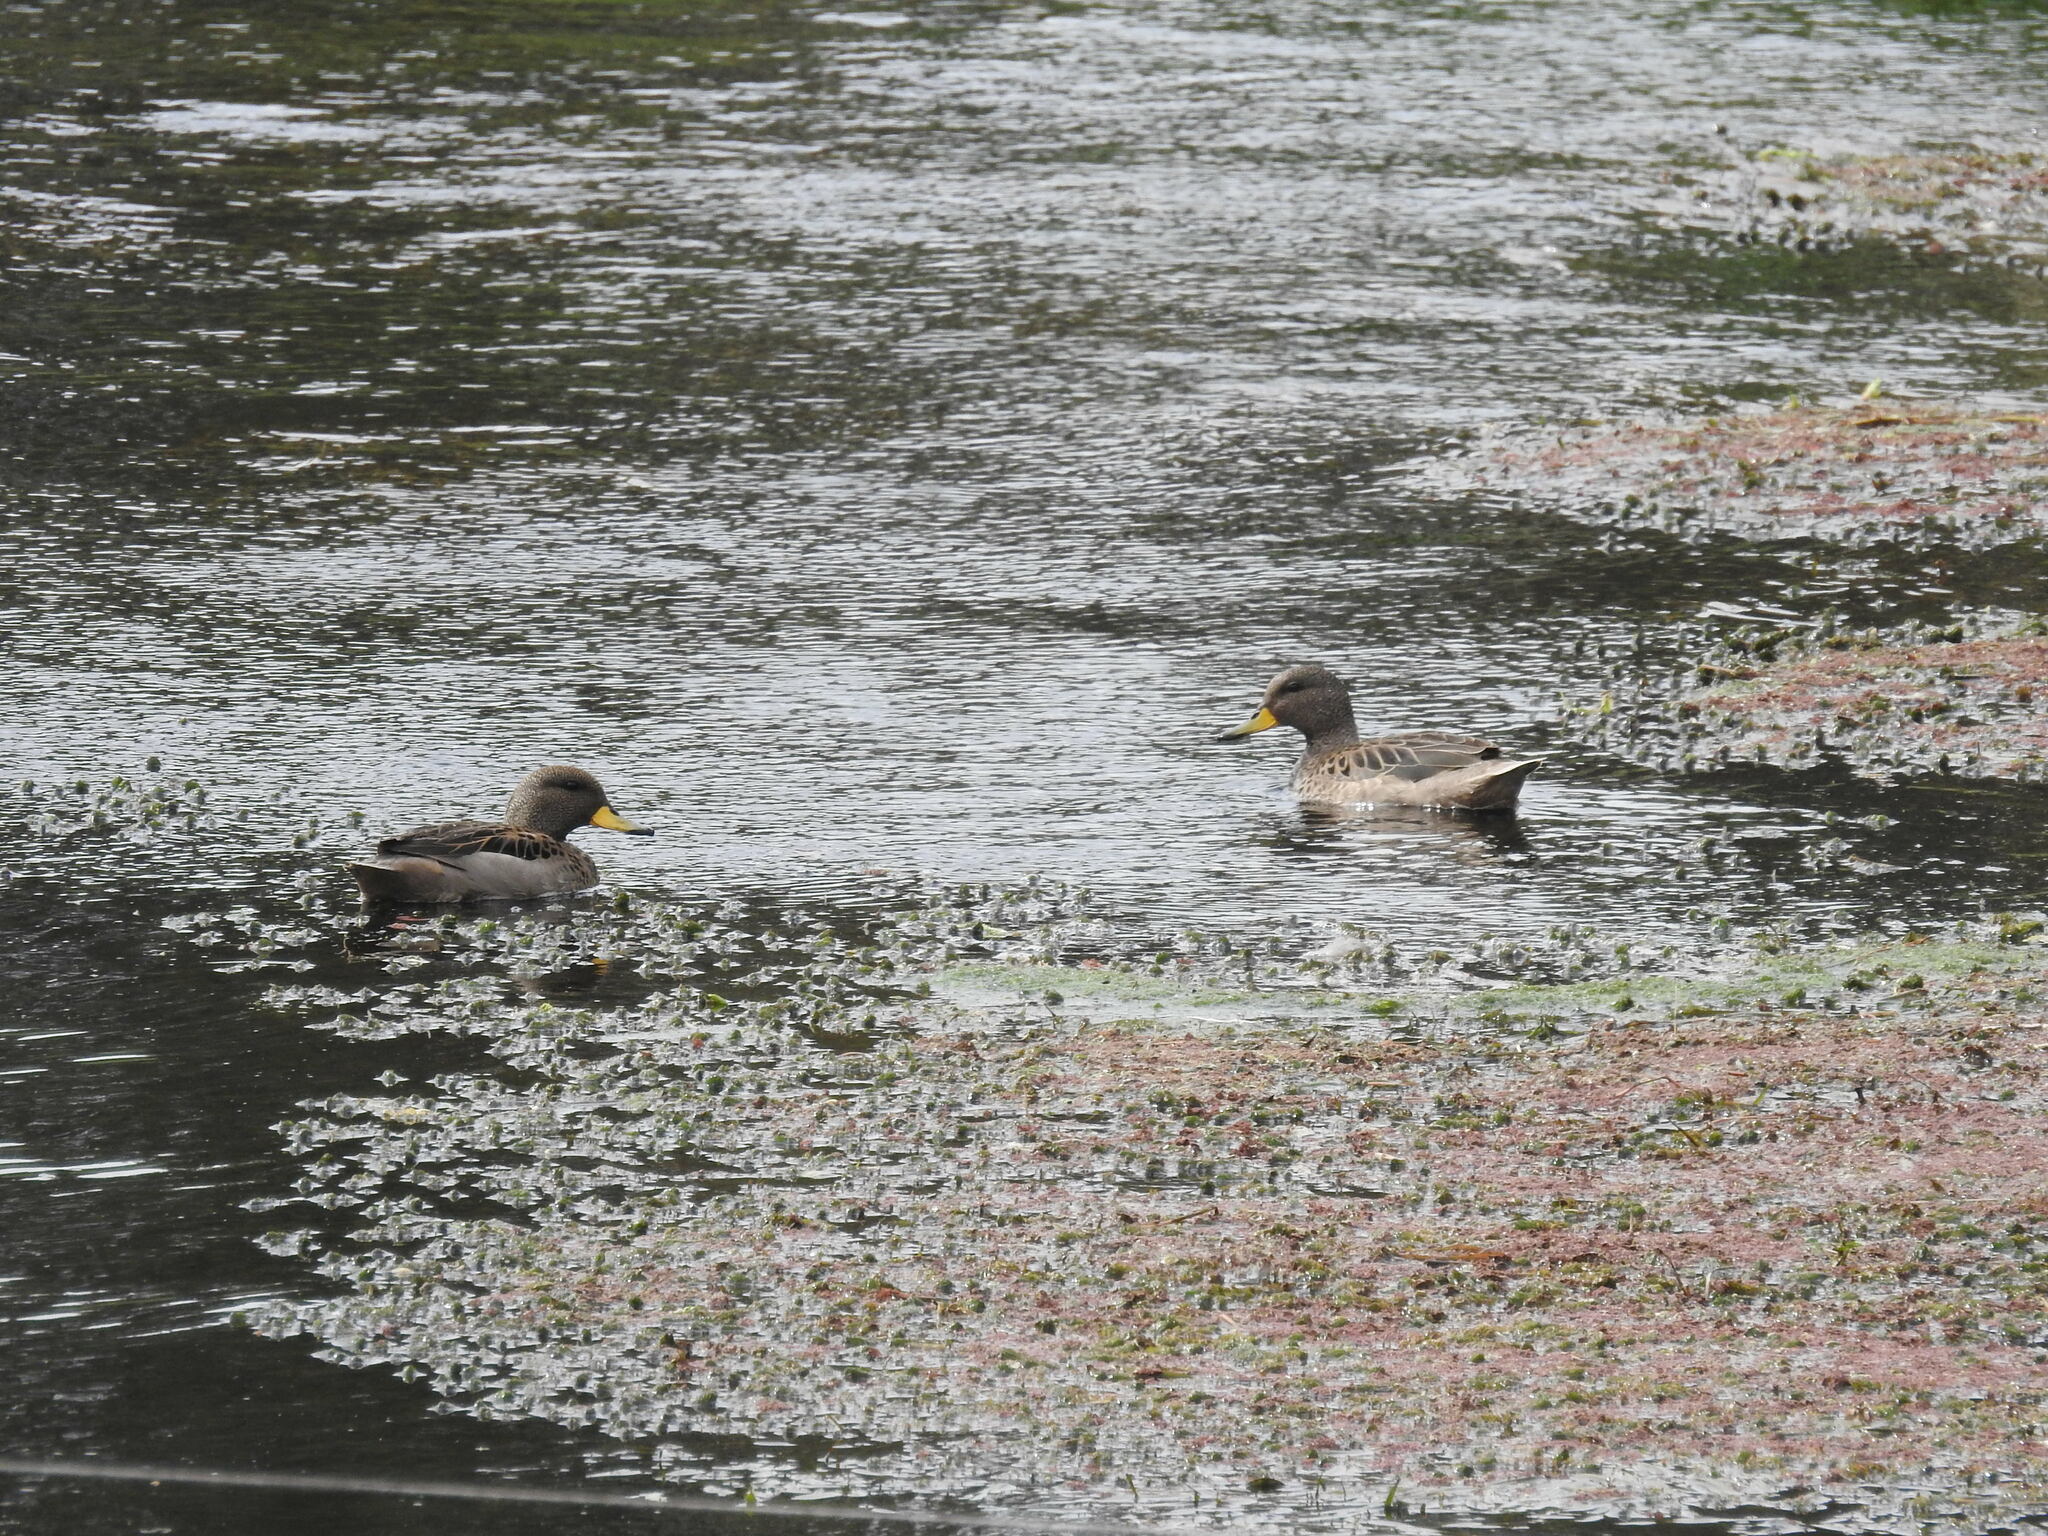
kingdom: Animalia
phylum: Chordata
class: Aves
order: Anseriformes
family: Anatidae
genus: Anas
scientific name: Anas flavirostris
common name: Yellow-billed teal
